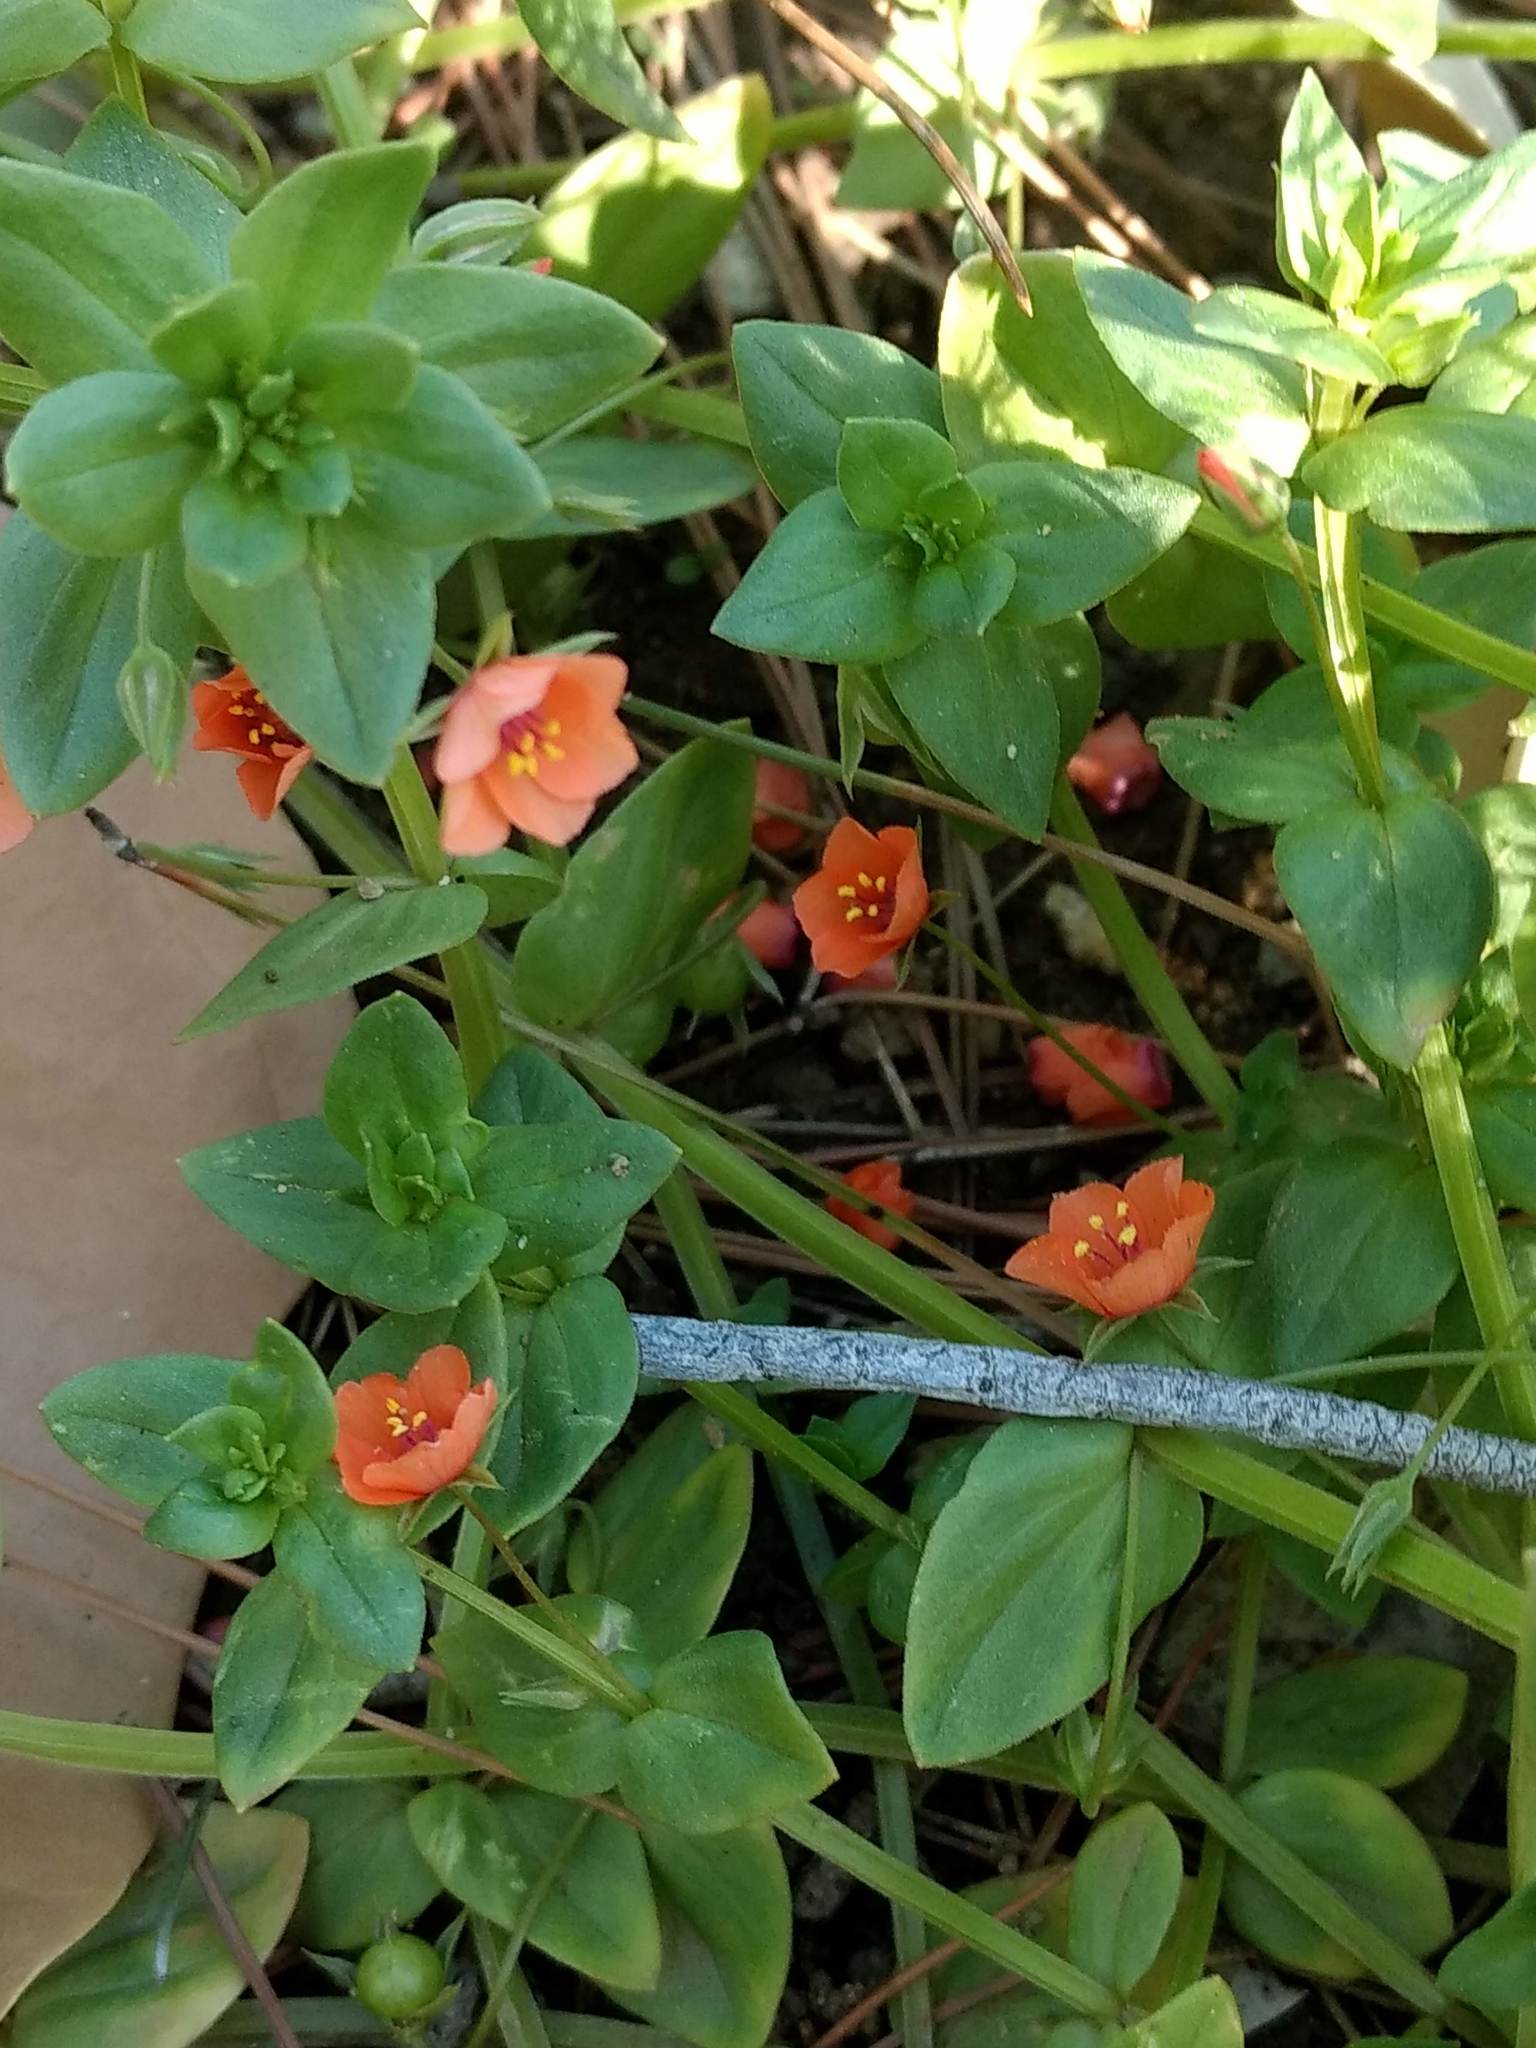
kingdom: Plantae
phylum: Tracheophyta
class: Magnoliopsida
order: Ericales
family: Primulaceae
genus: Lysimachia
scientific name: Lysimachia arvensis
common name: Scarlet pimpernel
